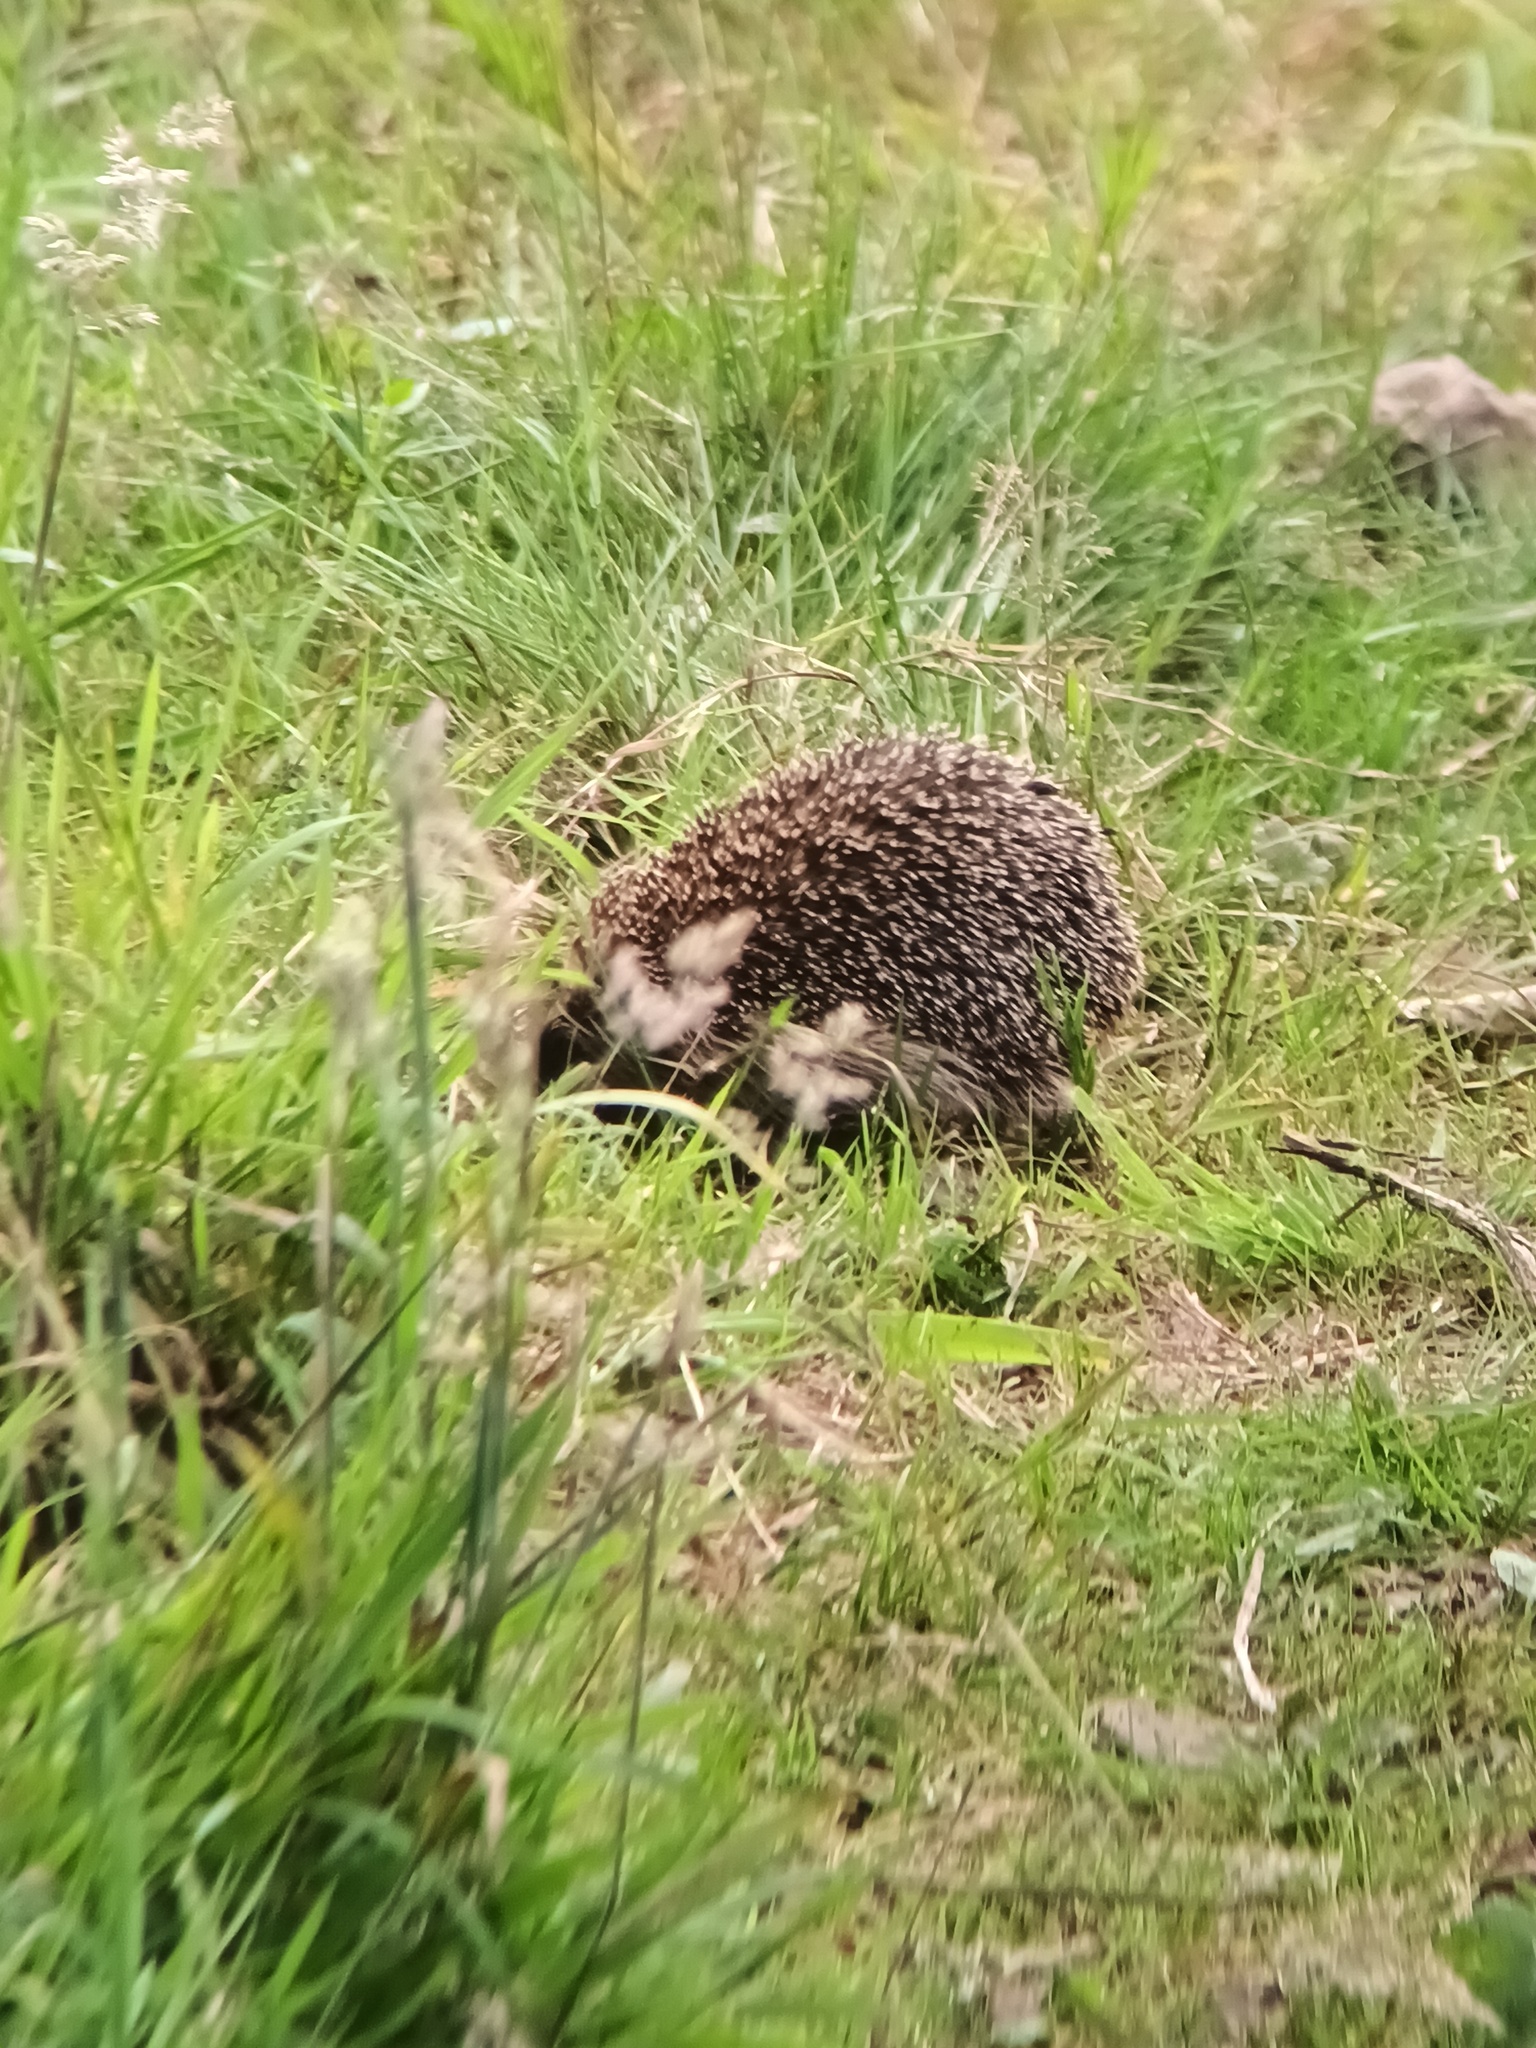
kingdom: Animalia
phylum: Chordata
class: Mammalia
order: Erinaceomorpha
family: Erinaceidae
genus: Erinaceus
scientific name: Erinaceus europaeus
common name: West european hedgehog
